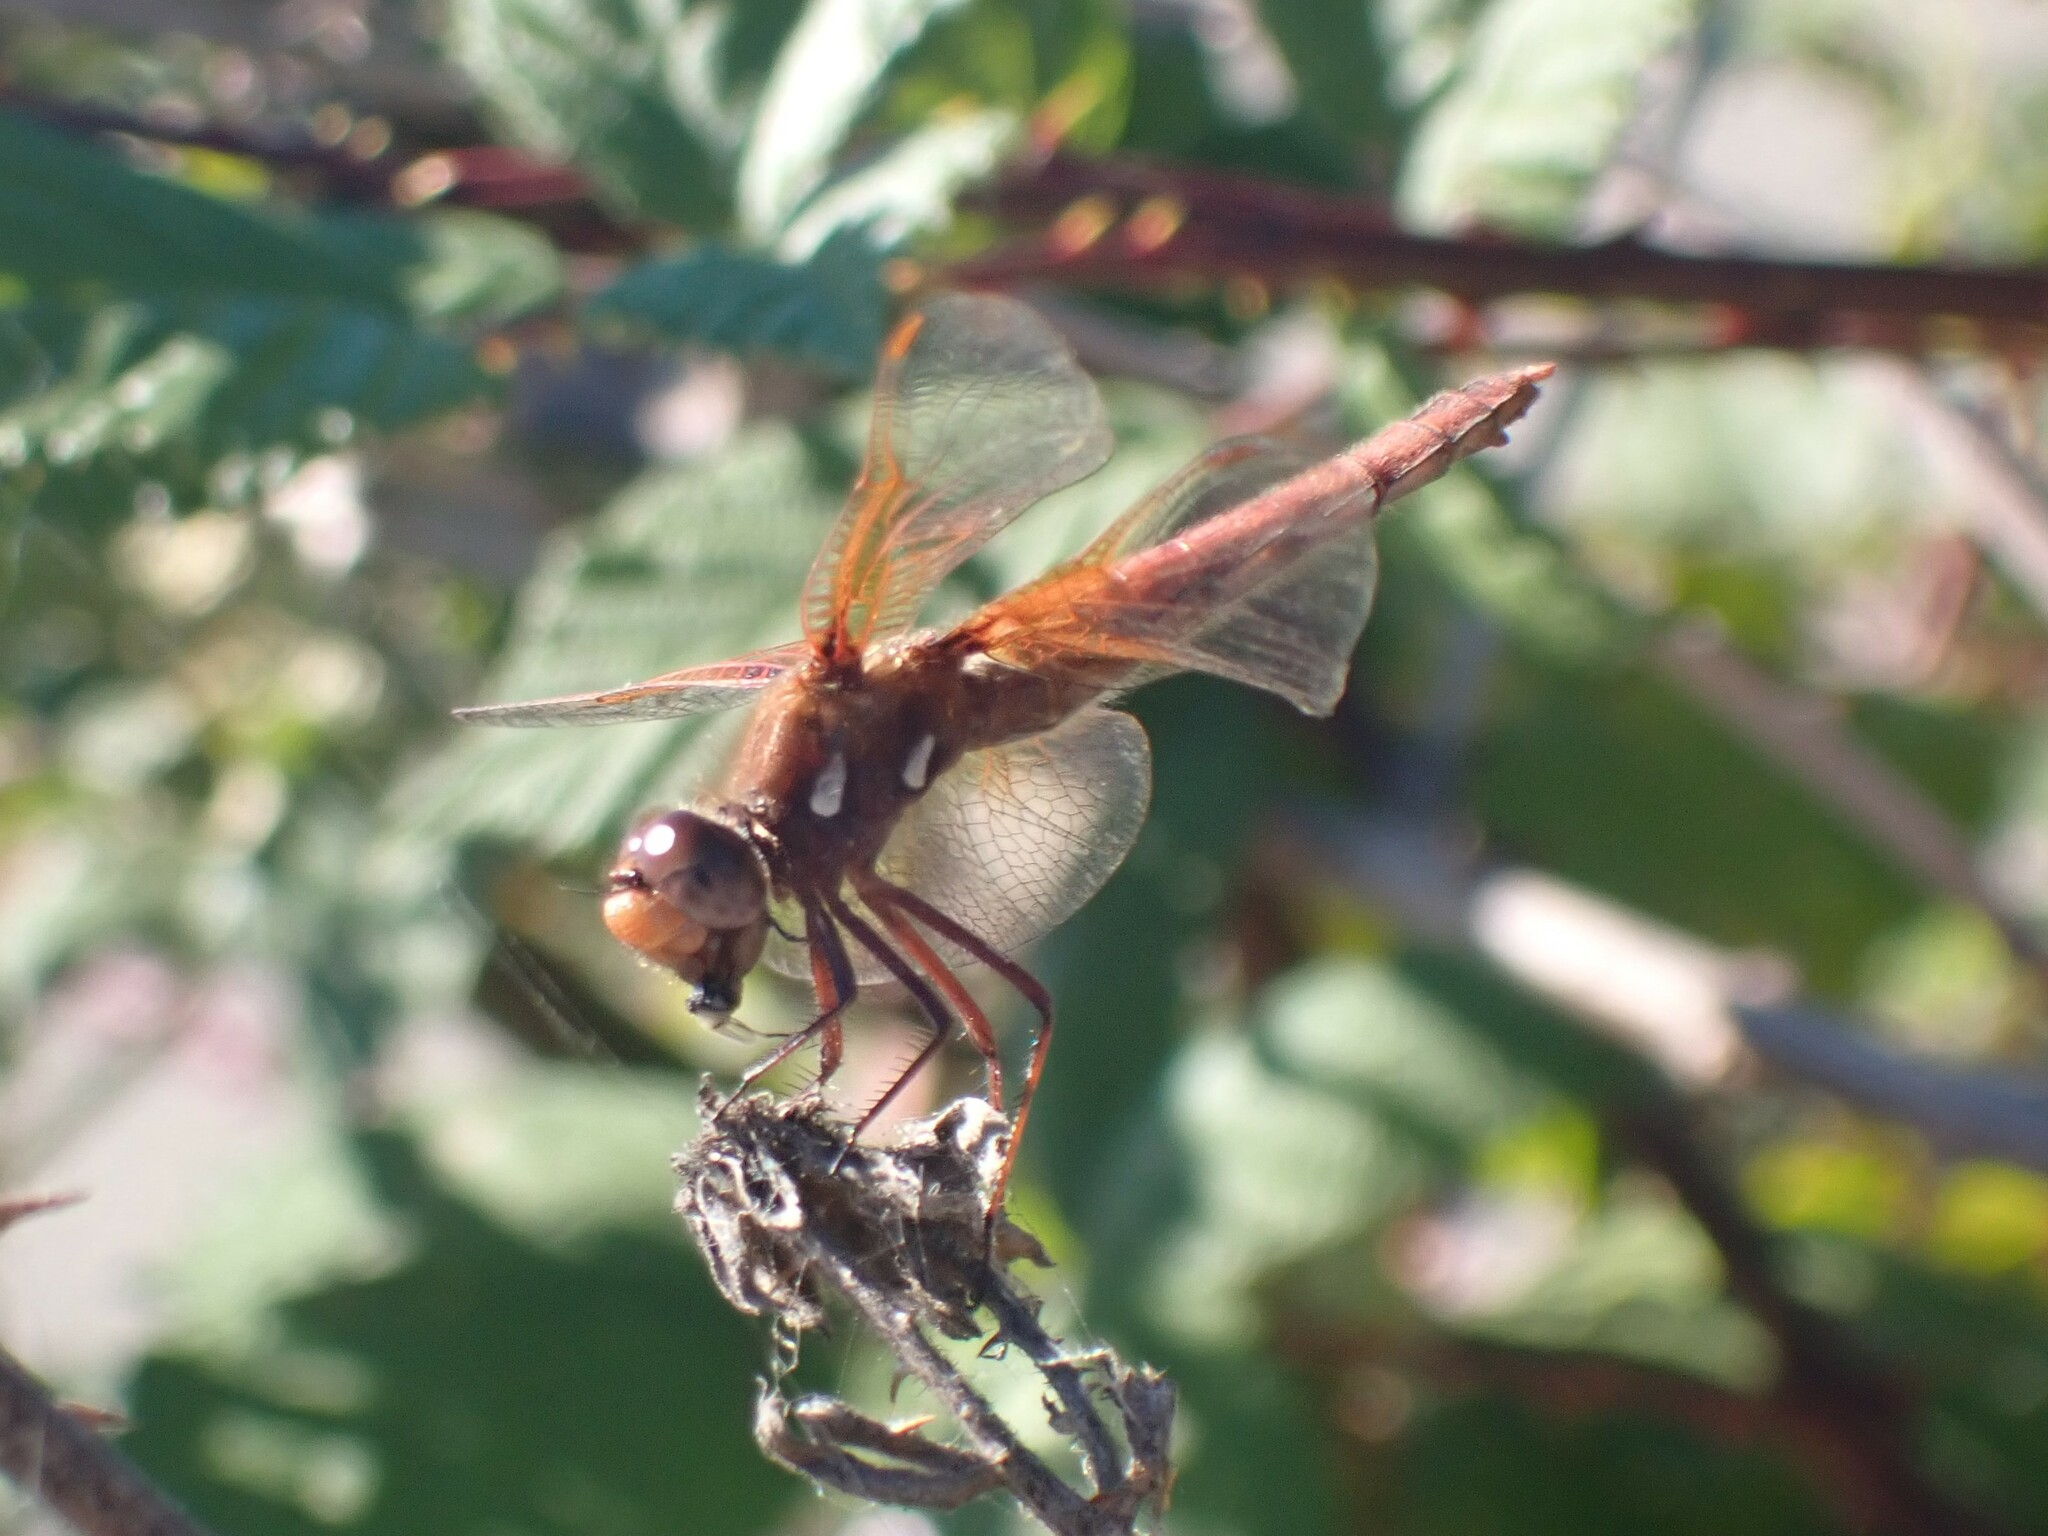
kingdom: Animalia
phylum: Arthropoda
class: Insecta
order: Odonata
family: Libellulidae
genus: Sympetrum
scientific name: Sympetrum illotum
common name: Cardinal meadowhawk
